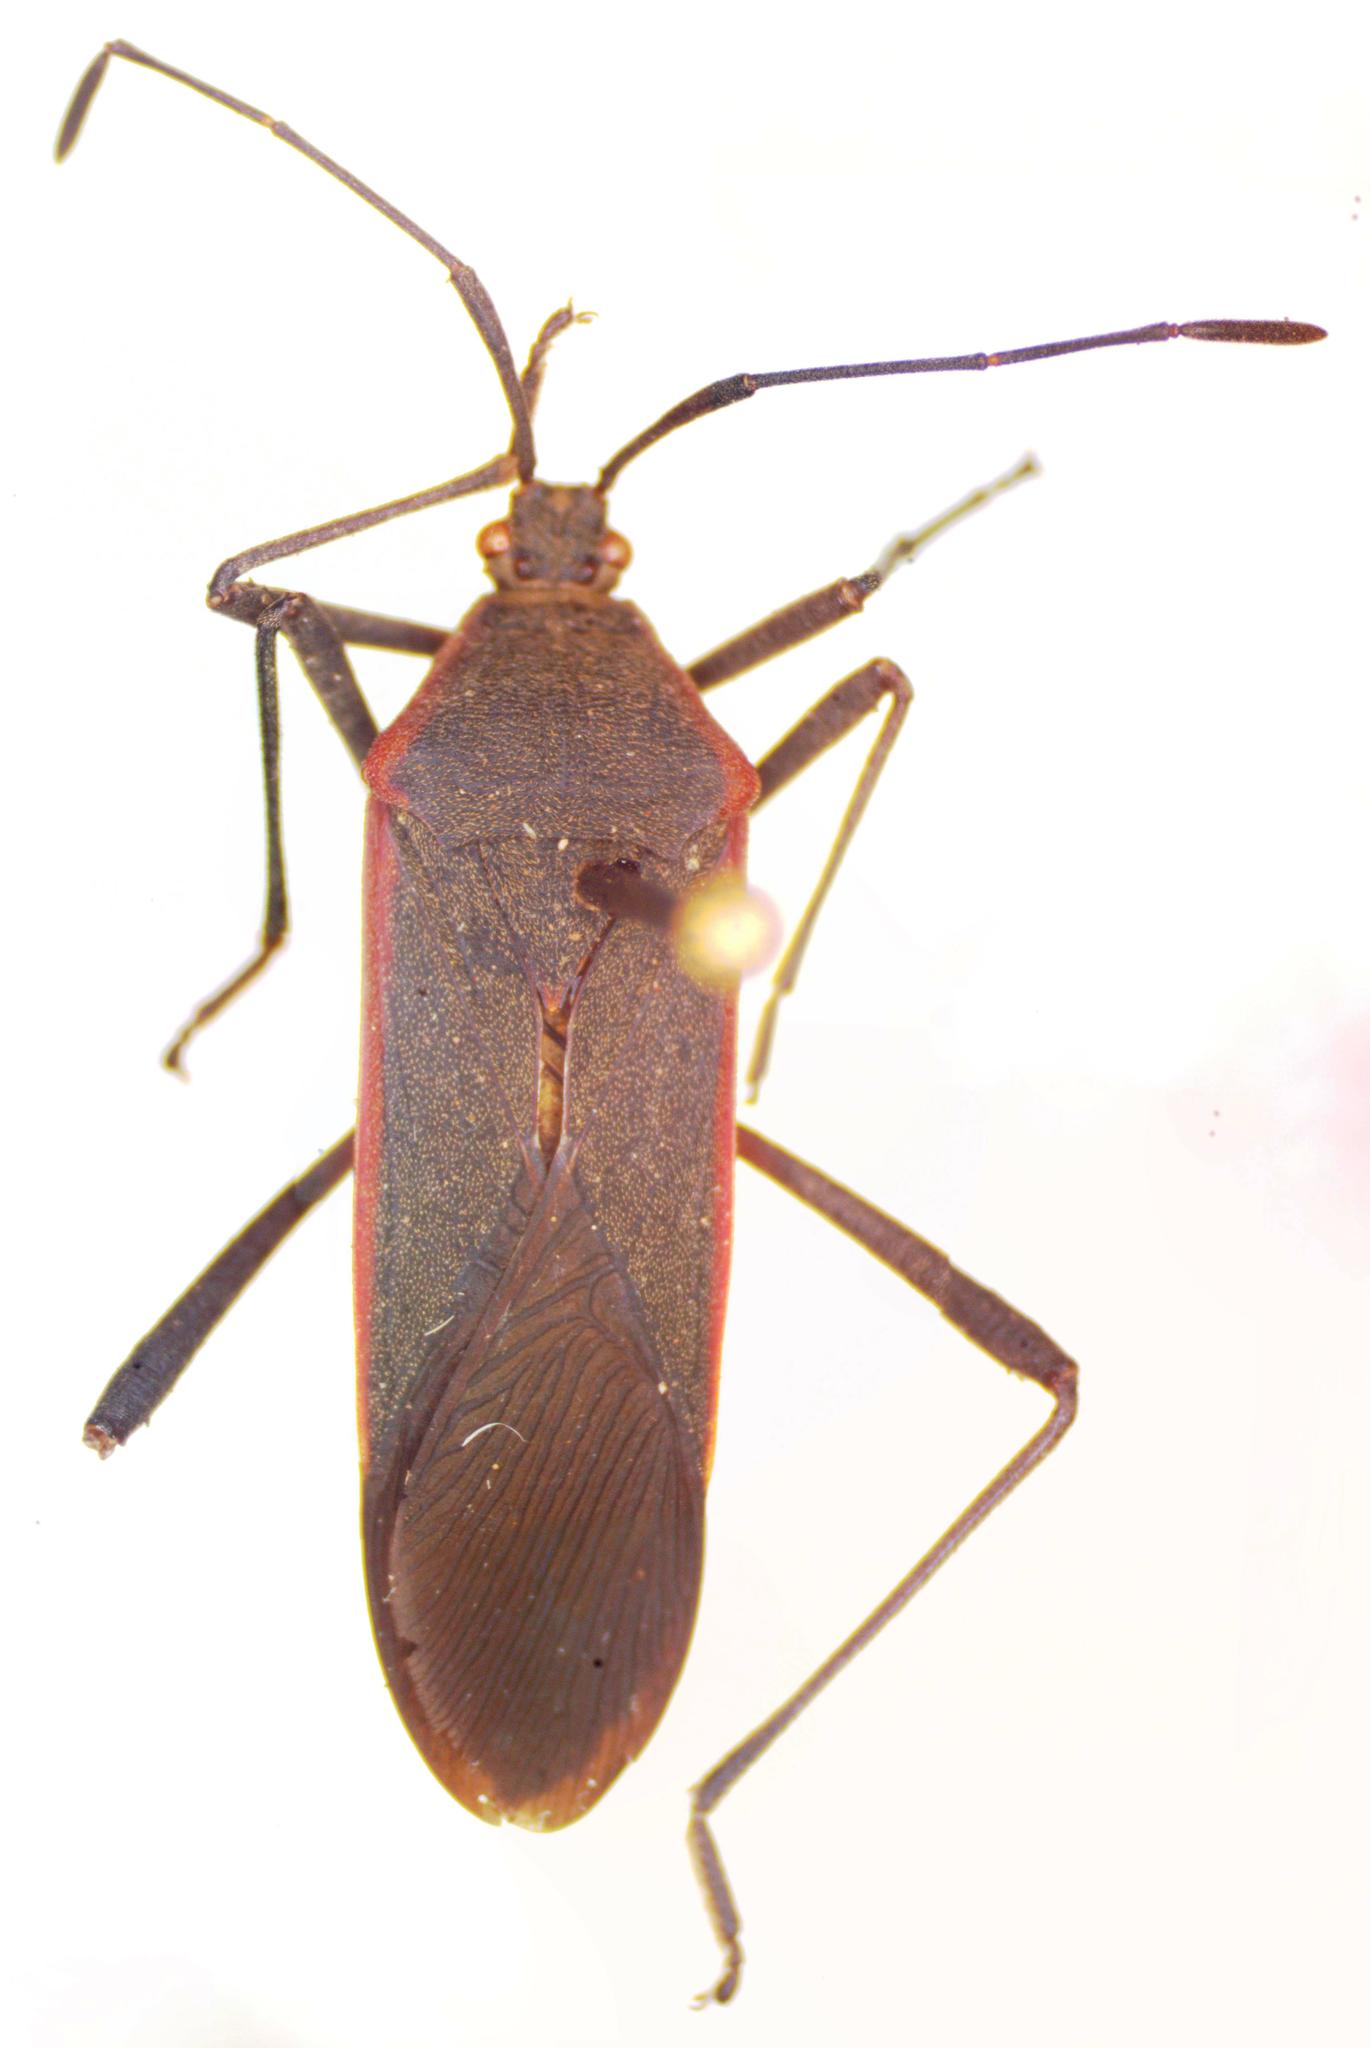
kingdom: Animalia
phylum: Arthropoda
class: Insecta
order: Hemiptera
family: Coreidae
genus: Staluptus
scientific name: Staluptus marginalis
